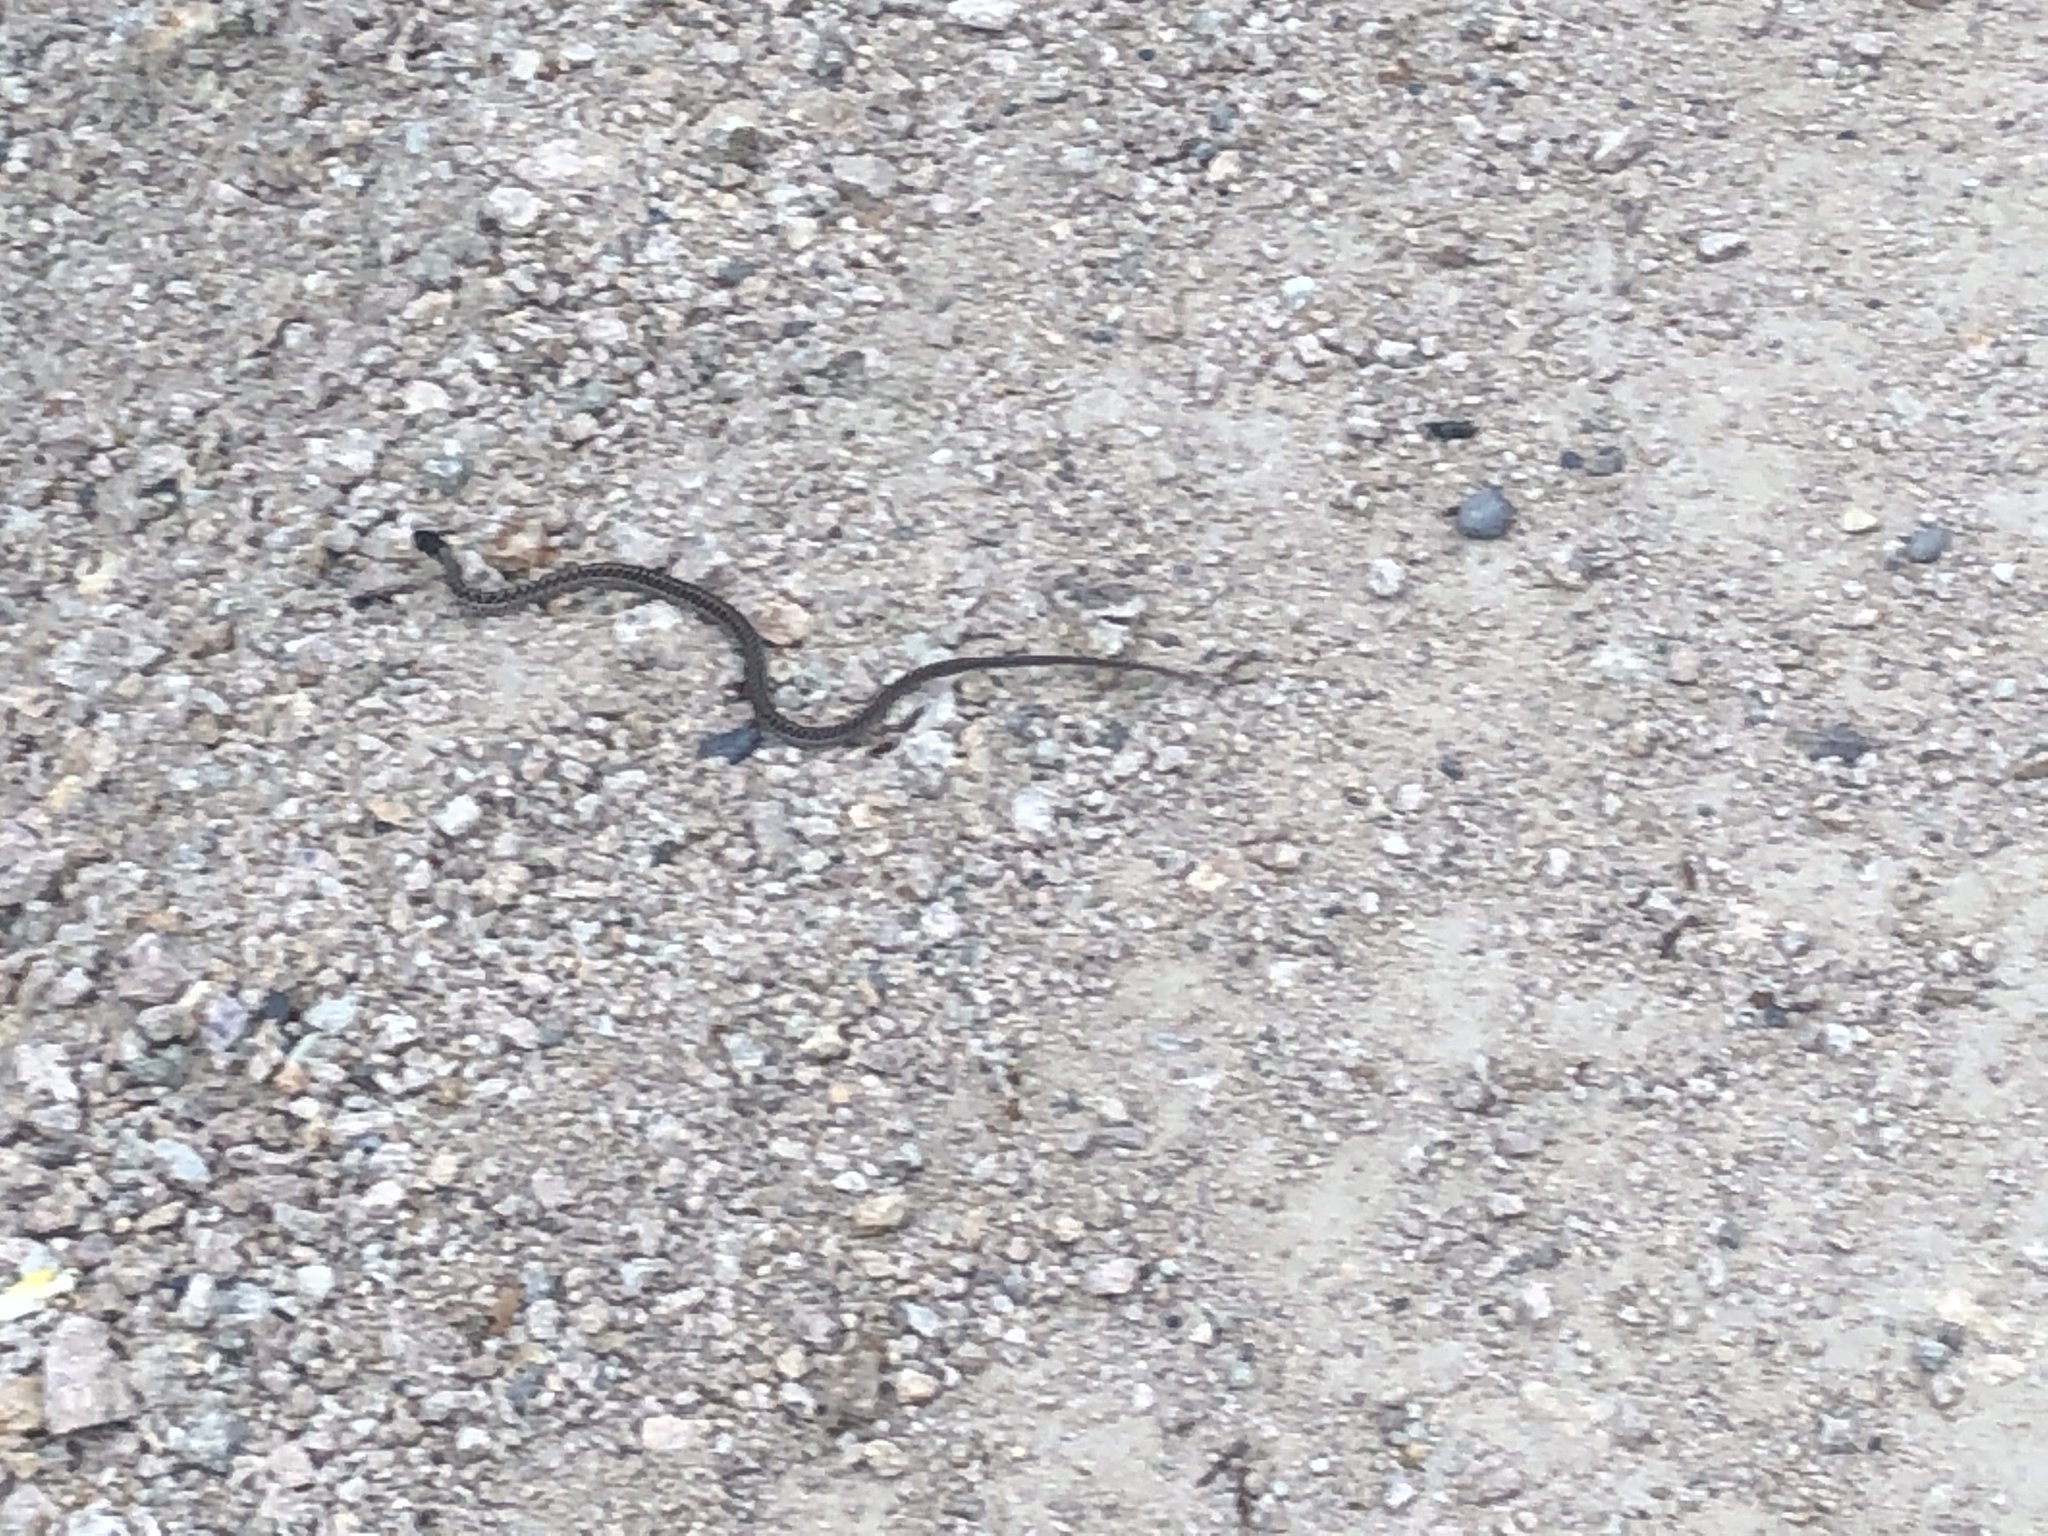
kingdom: Animalia
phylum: Chordata
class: Squamata
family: Colubridae
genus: Thamnophis
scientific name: Thamnophis elegans
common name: Western terrestrial garter snake
